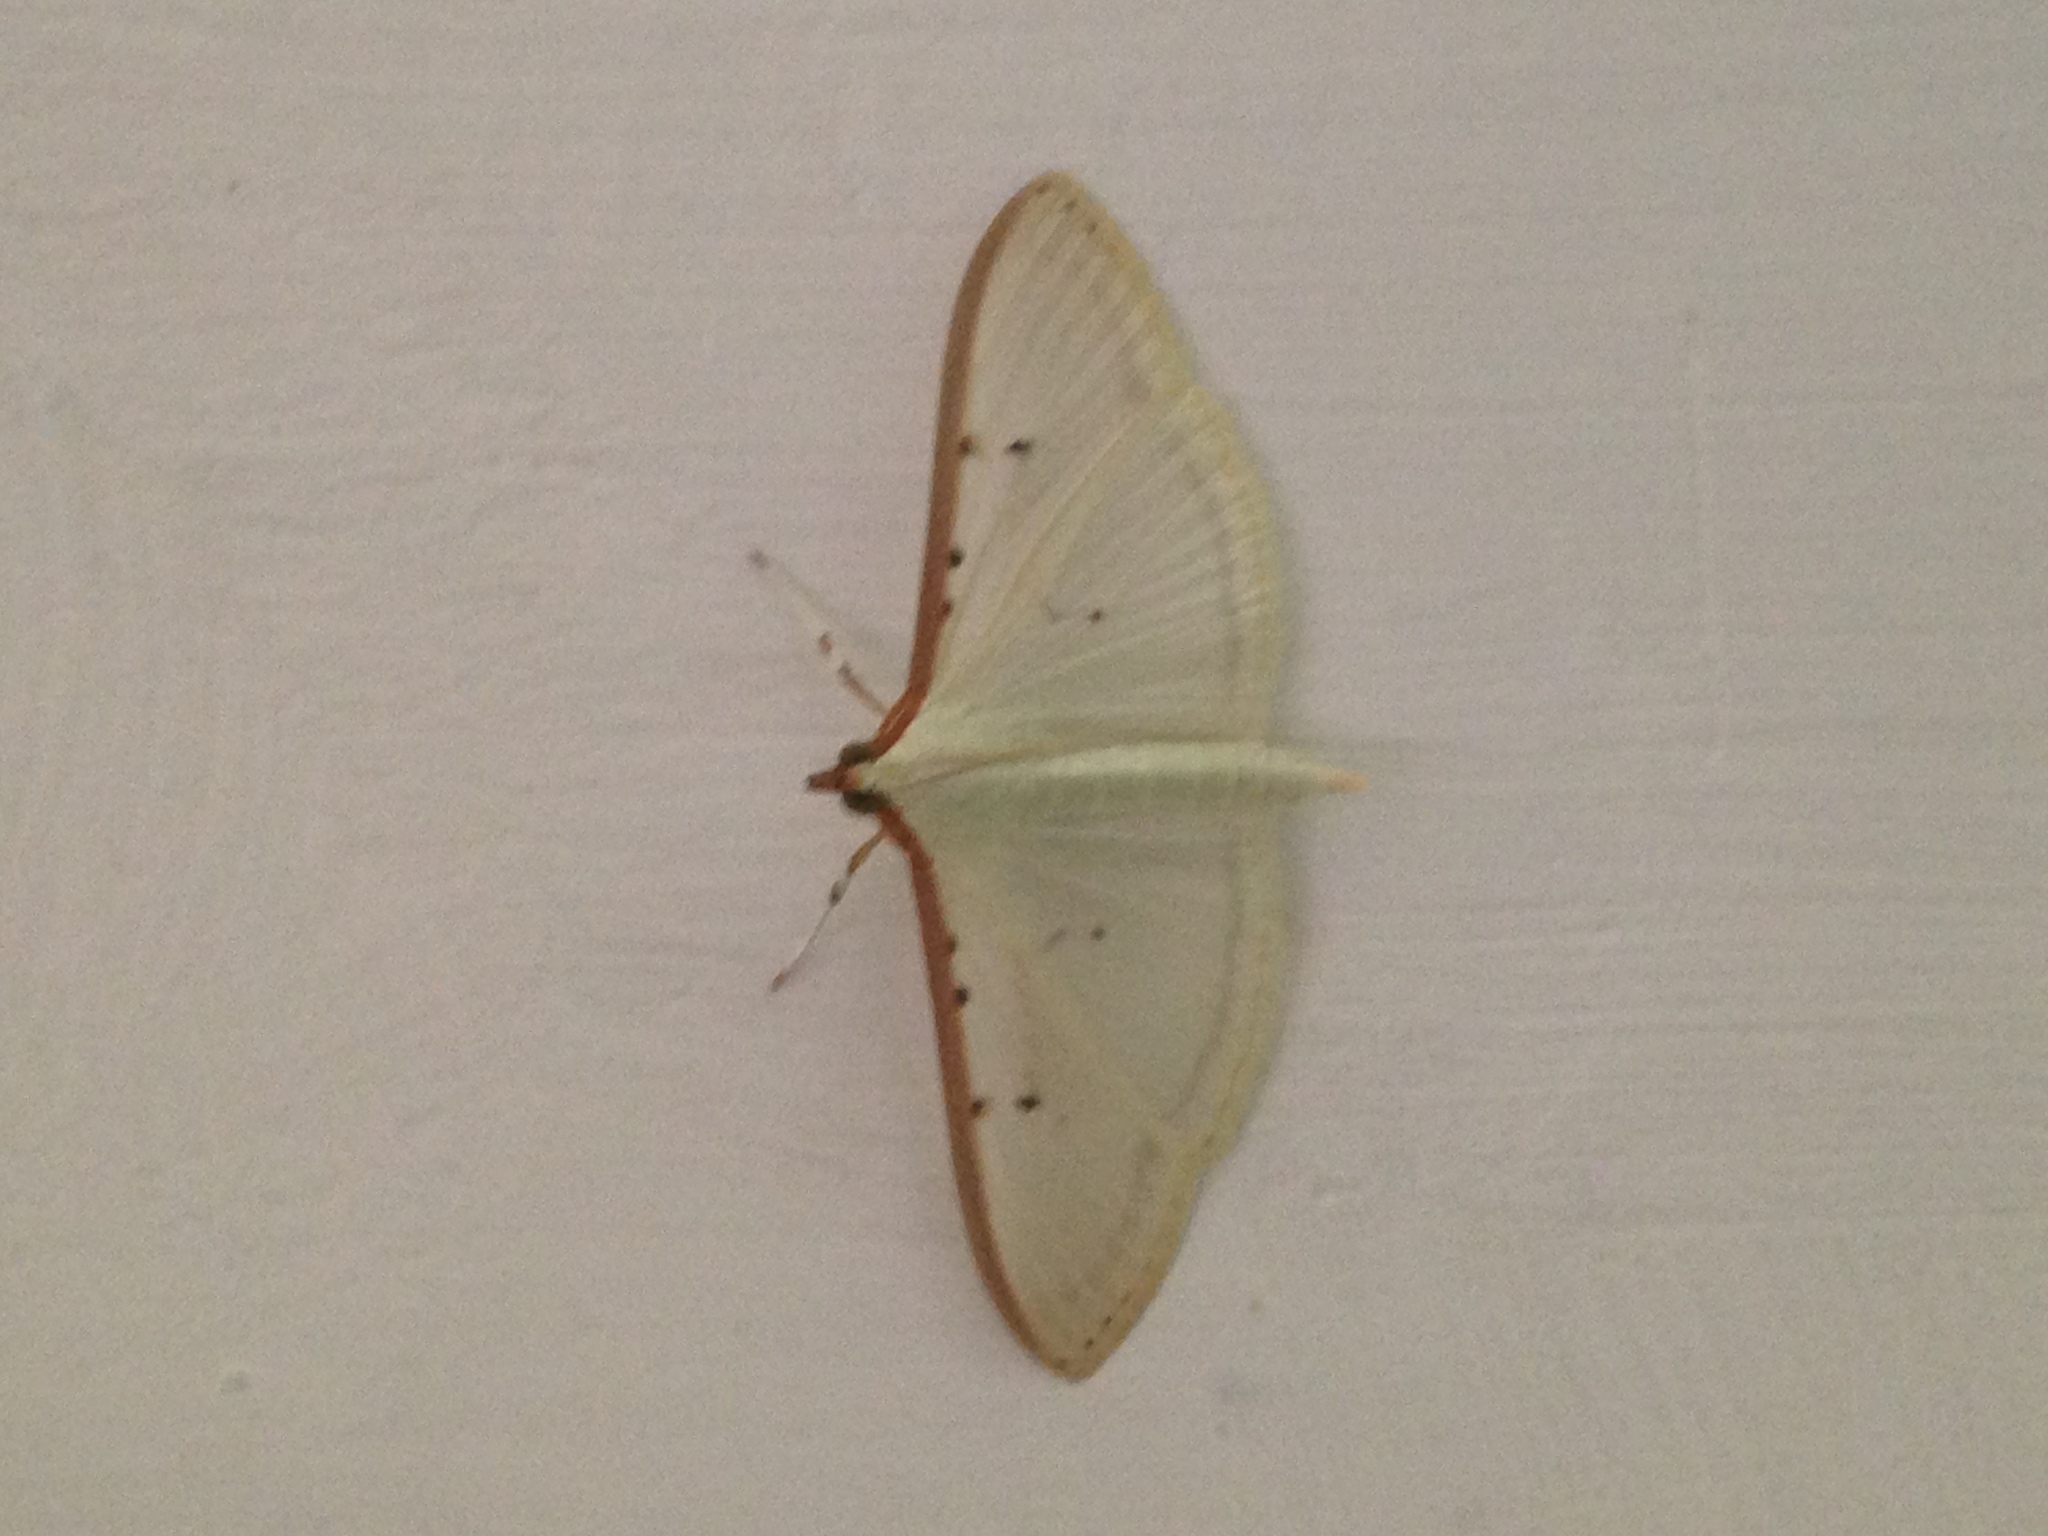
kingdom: Animalia
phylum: Arthropoda
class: Insecta
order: Lepidoptera
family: Crambidae
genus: Palpita
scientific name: Palpita quadristigmalis
